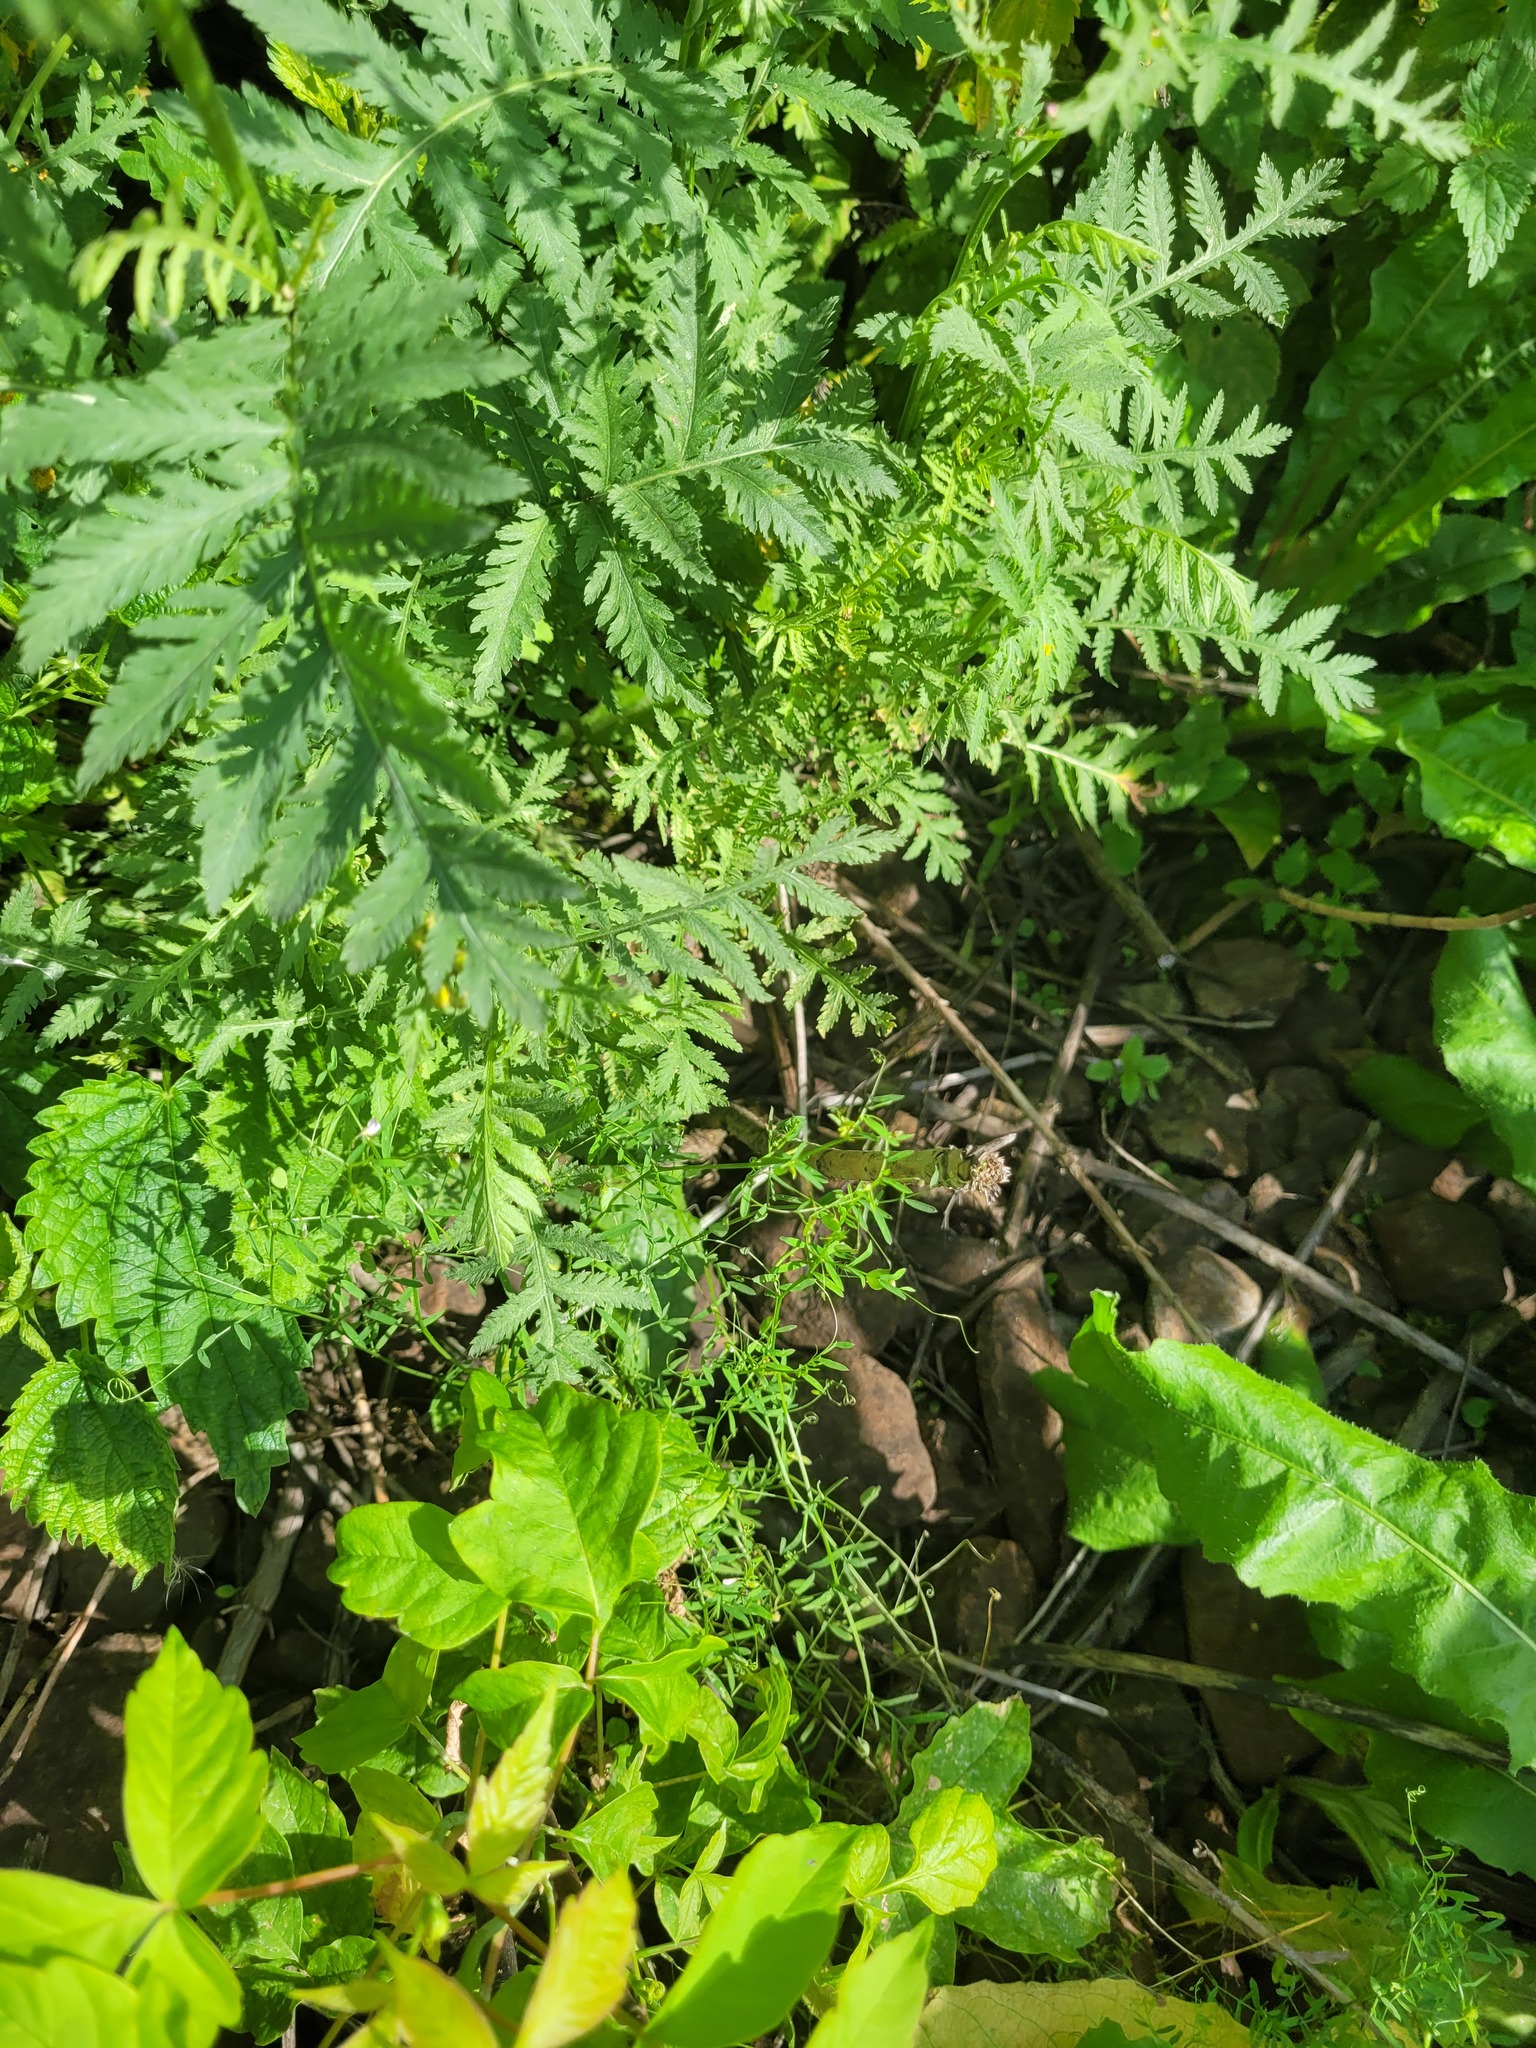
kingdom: Plantae
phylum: Tracheophyta
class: Magnoliopsida
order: Fabales
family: Fabaceae
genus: Vicia
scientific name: Vicia tetrasperma
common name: Smooth tare
